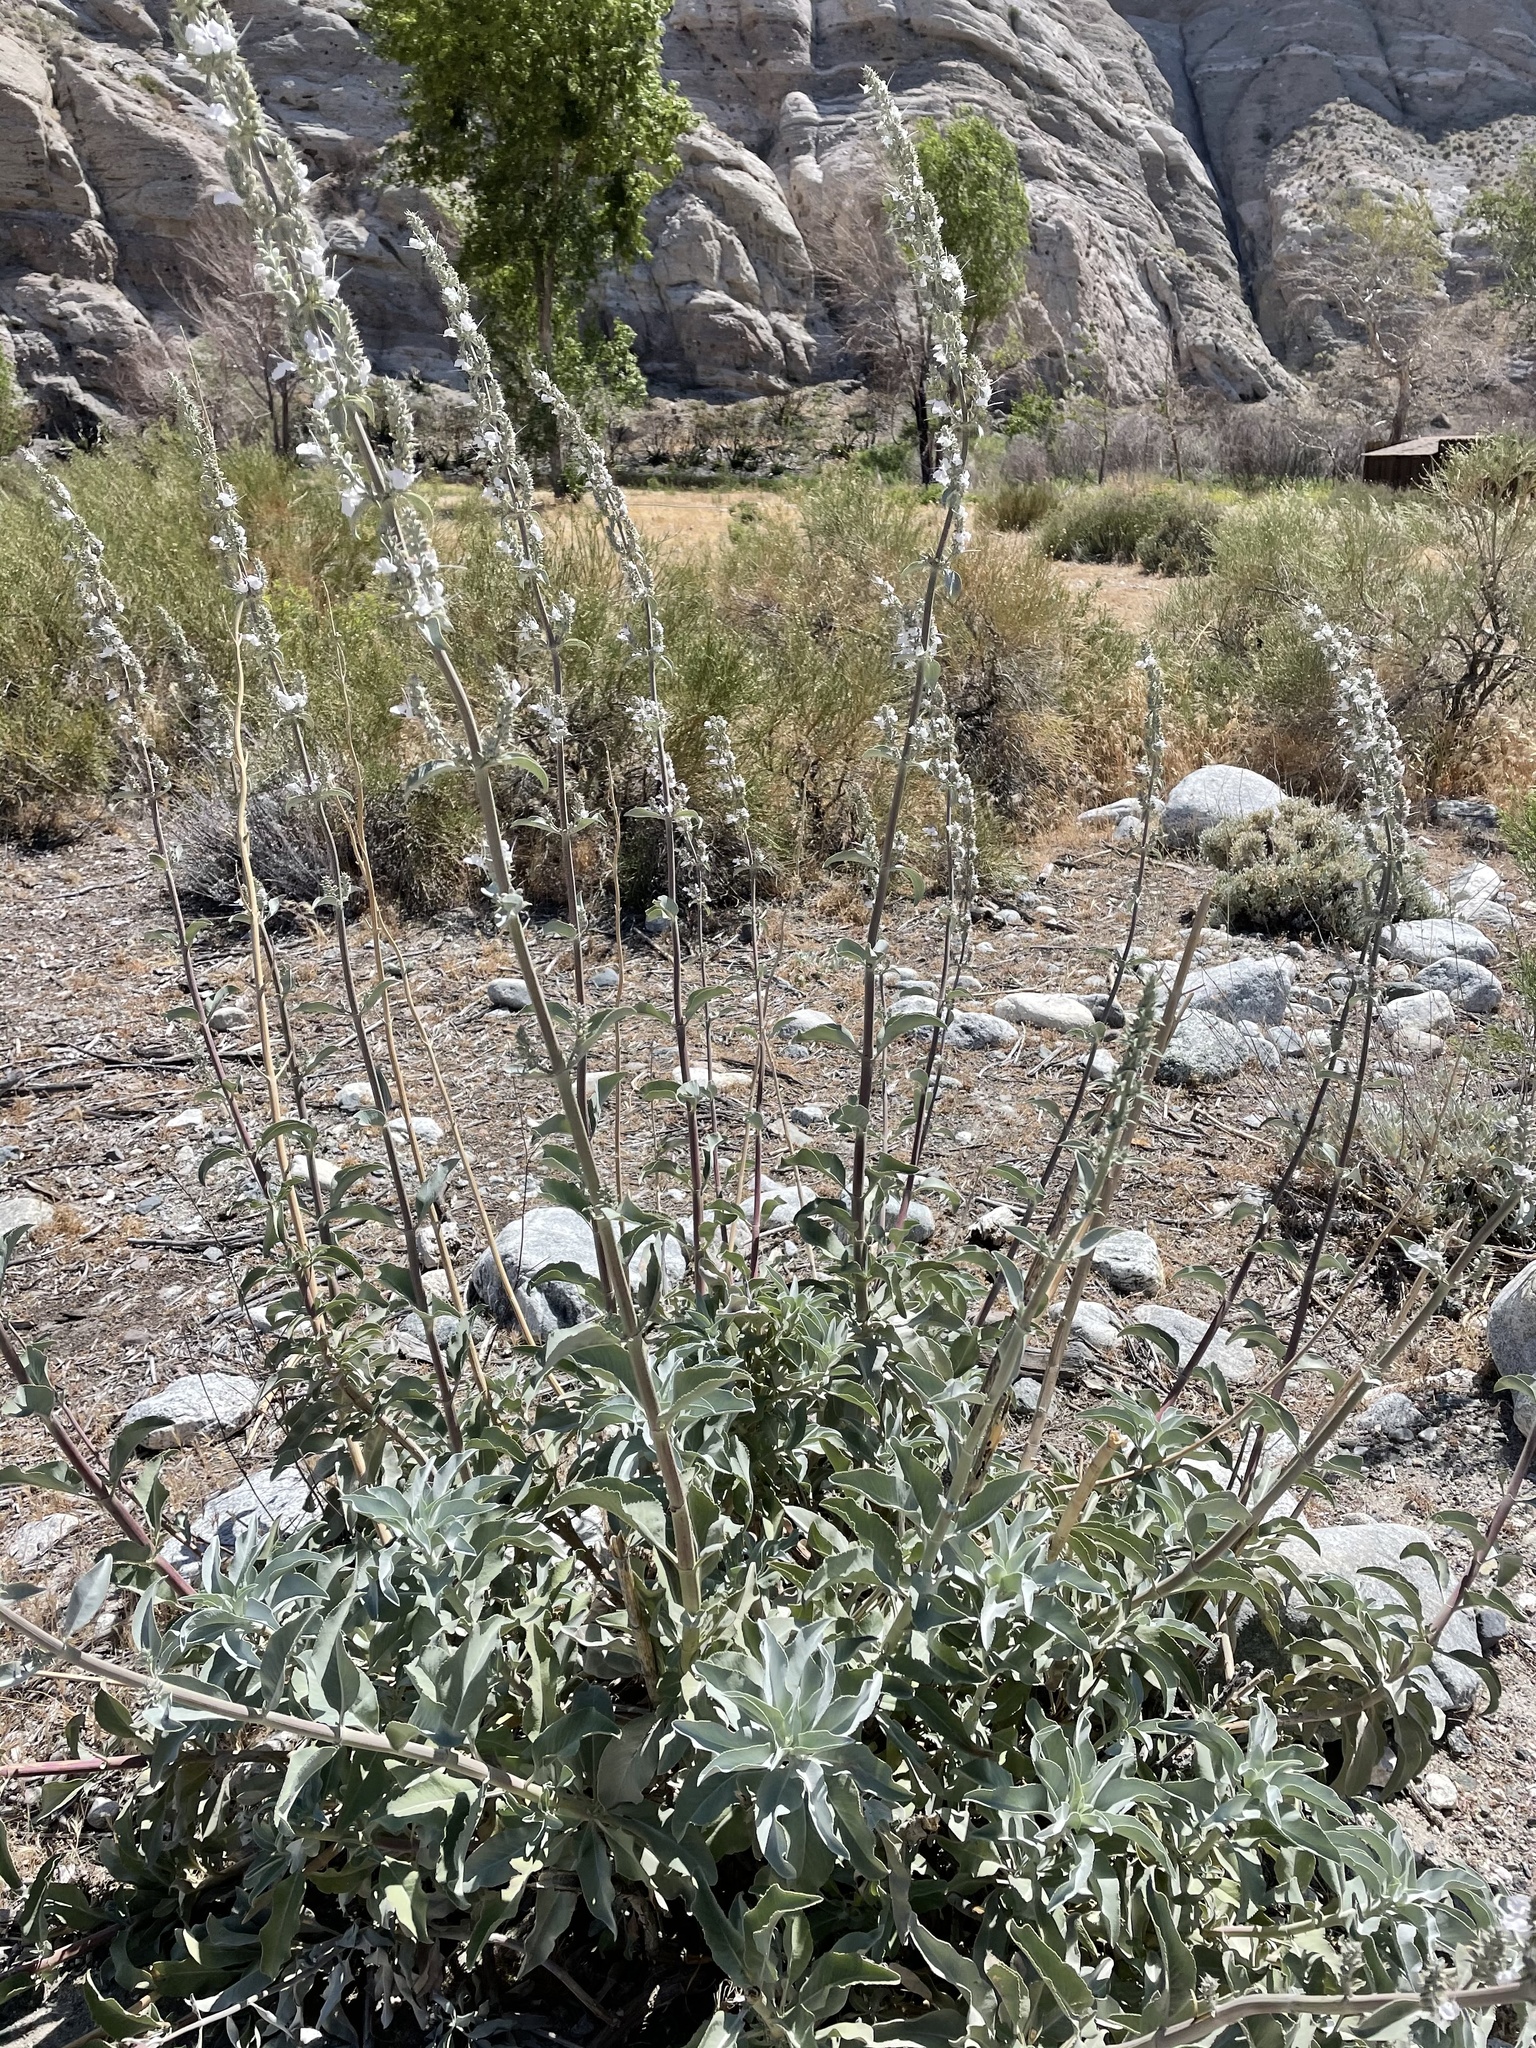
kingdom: Plantae
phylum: Tracheophyta
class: Magnoliopsida
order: Lamiales
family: Lamiaceae
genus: Salvia
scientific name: Salvia apiana
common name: White sage
